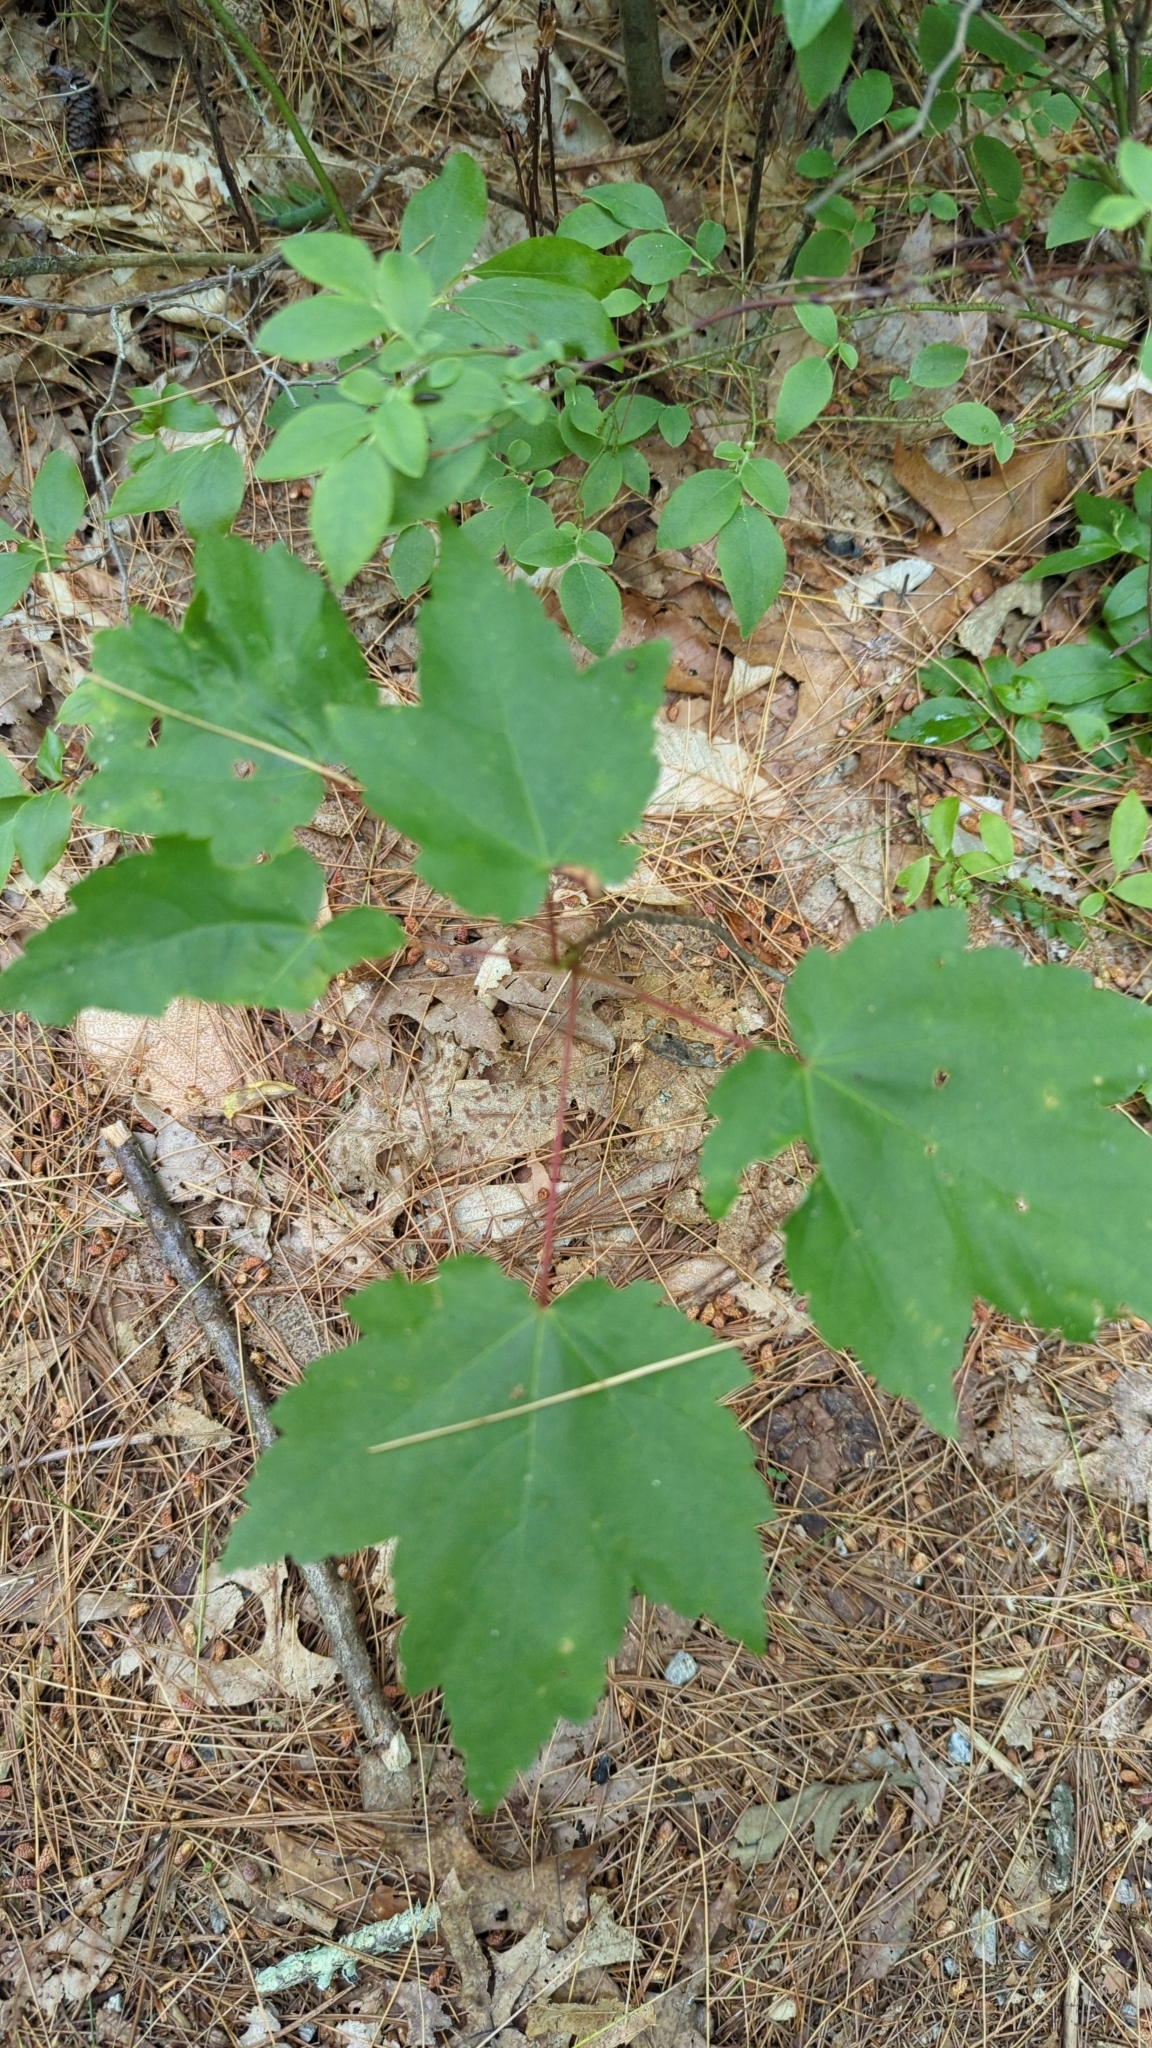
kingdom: Plantae
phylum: Tracheophyta
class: Magnoliopsida
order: Sapindales
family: Sapindaceae
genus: Acer
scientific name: Acer rubrum
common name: Red maple
